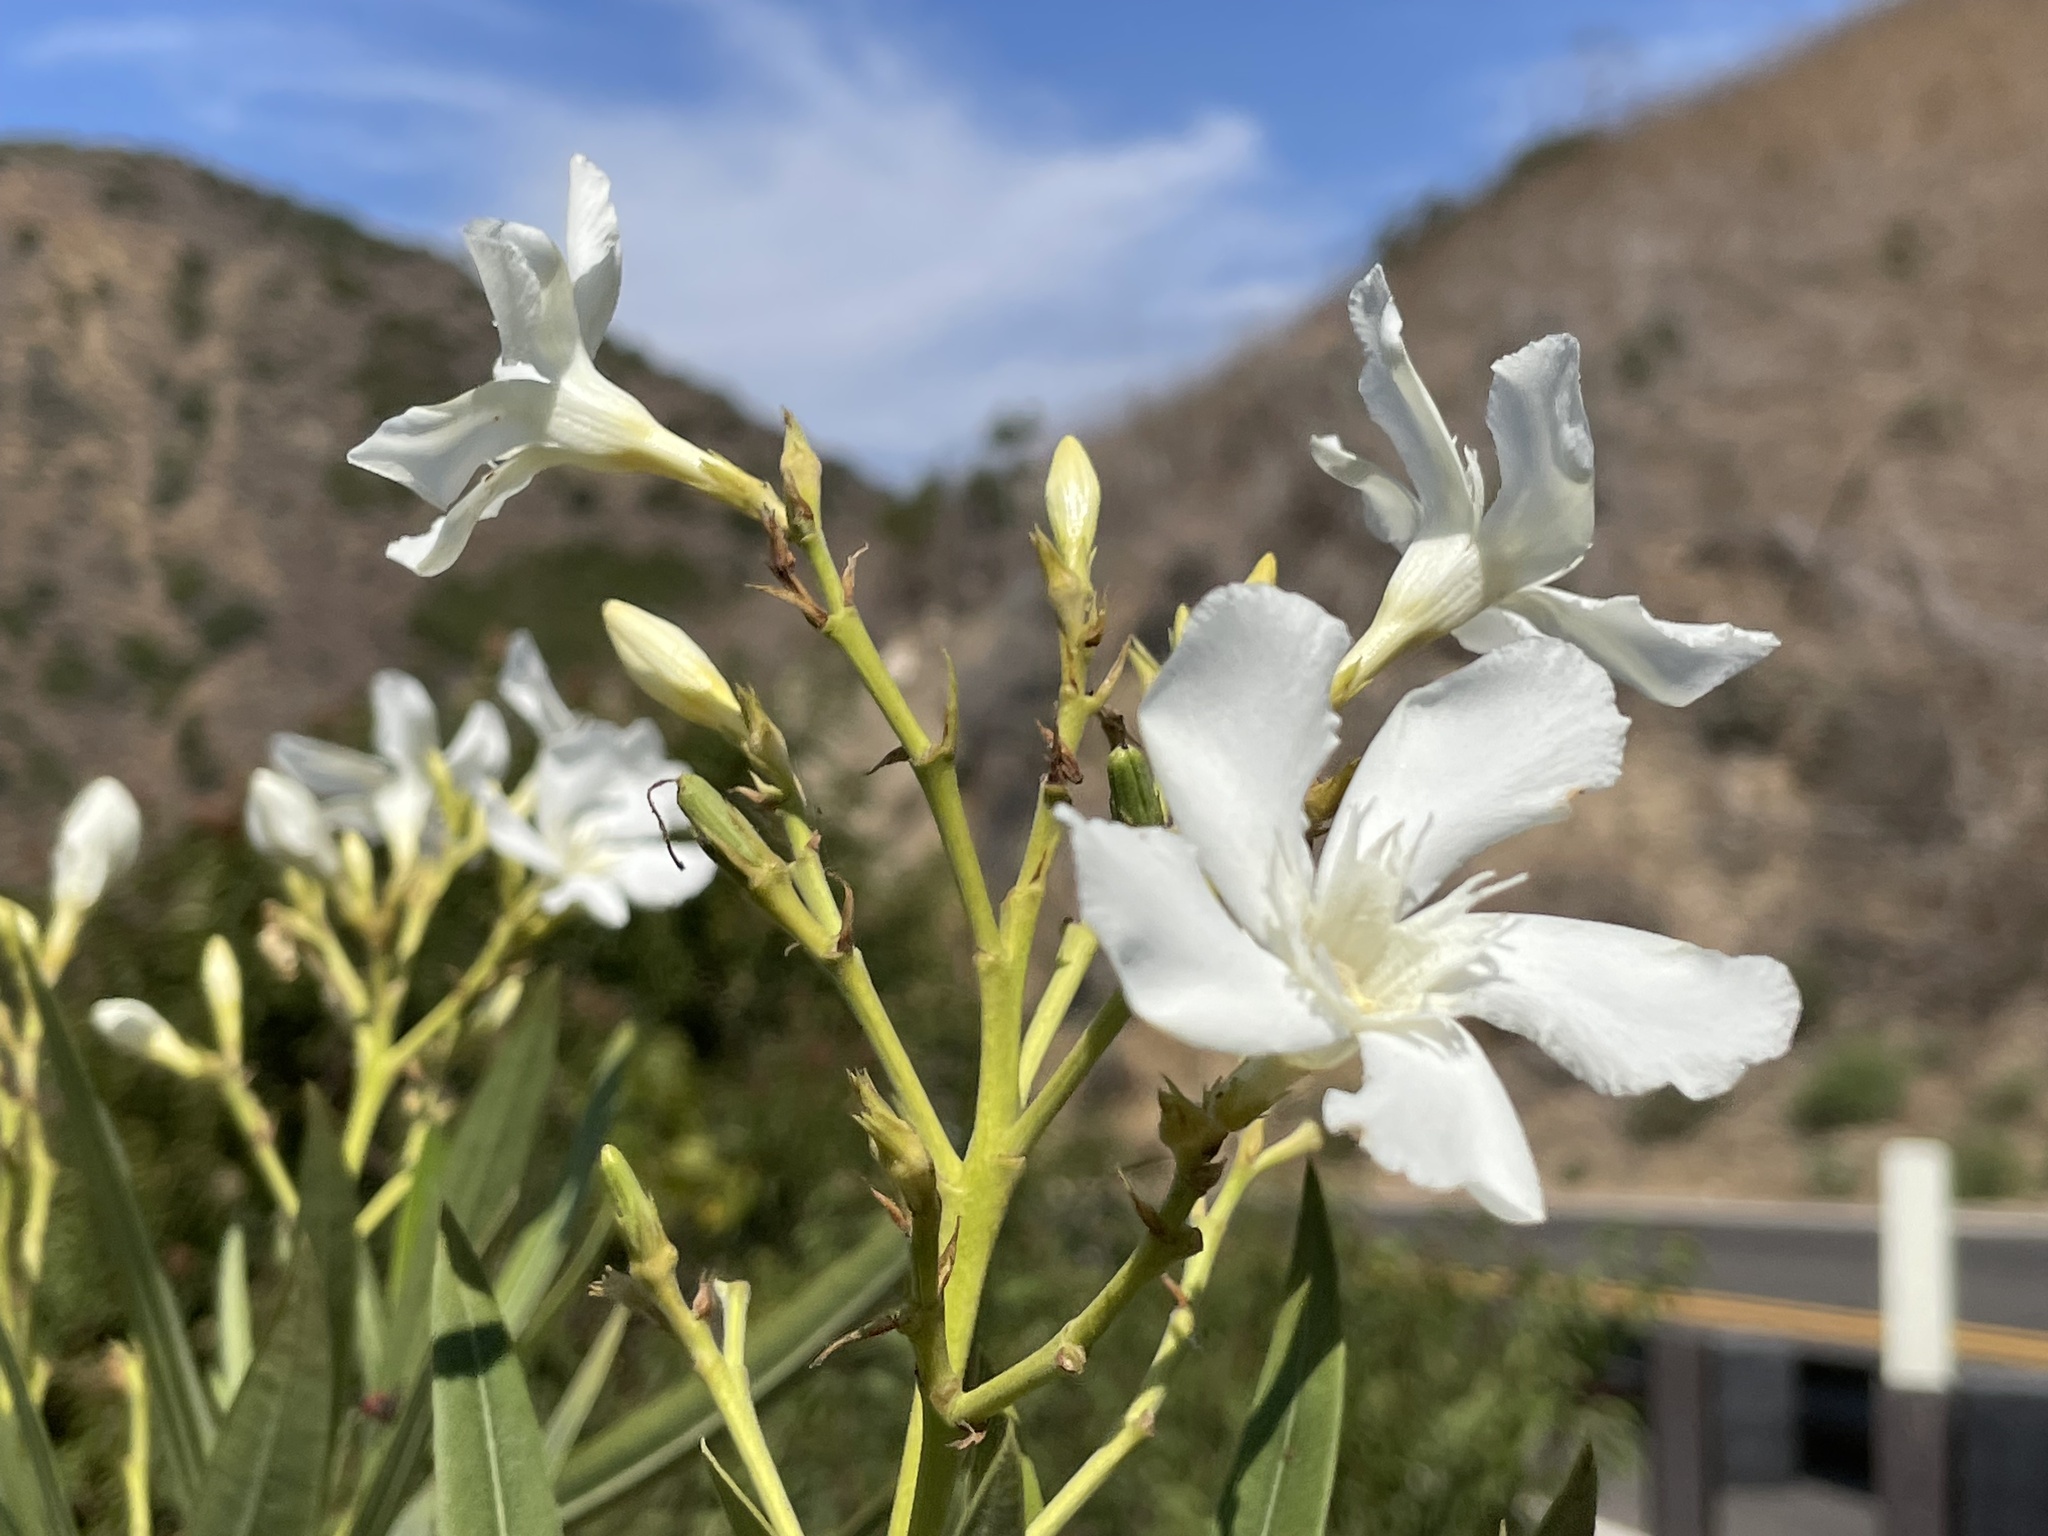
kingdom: Plantae
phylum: Tracheophyta
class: Magnoliopsida
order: Gentianales
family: Apocynaceae
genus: Nerium
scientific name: Nerium oleander
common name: Oleander
